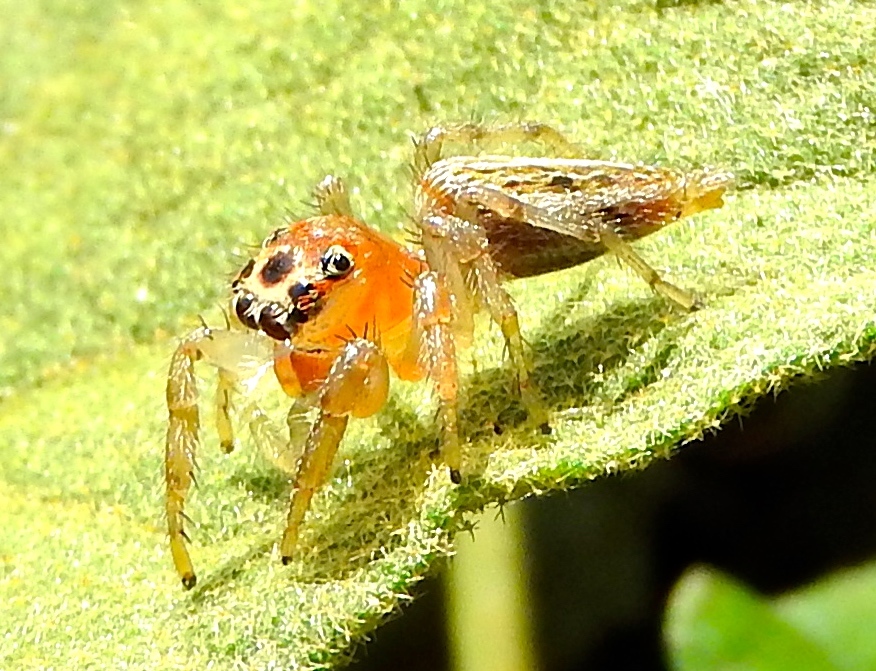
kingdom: Animalia
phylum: Arthropoda
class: Arachnida
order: Araneae
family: Salticidae
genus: Colonus
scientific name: Colonus
